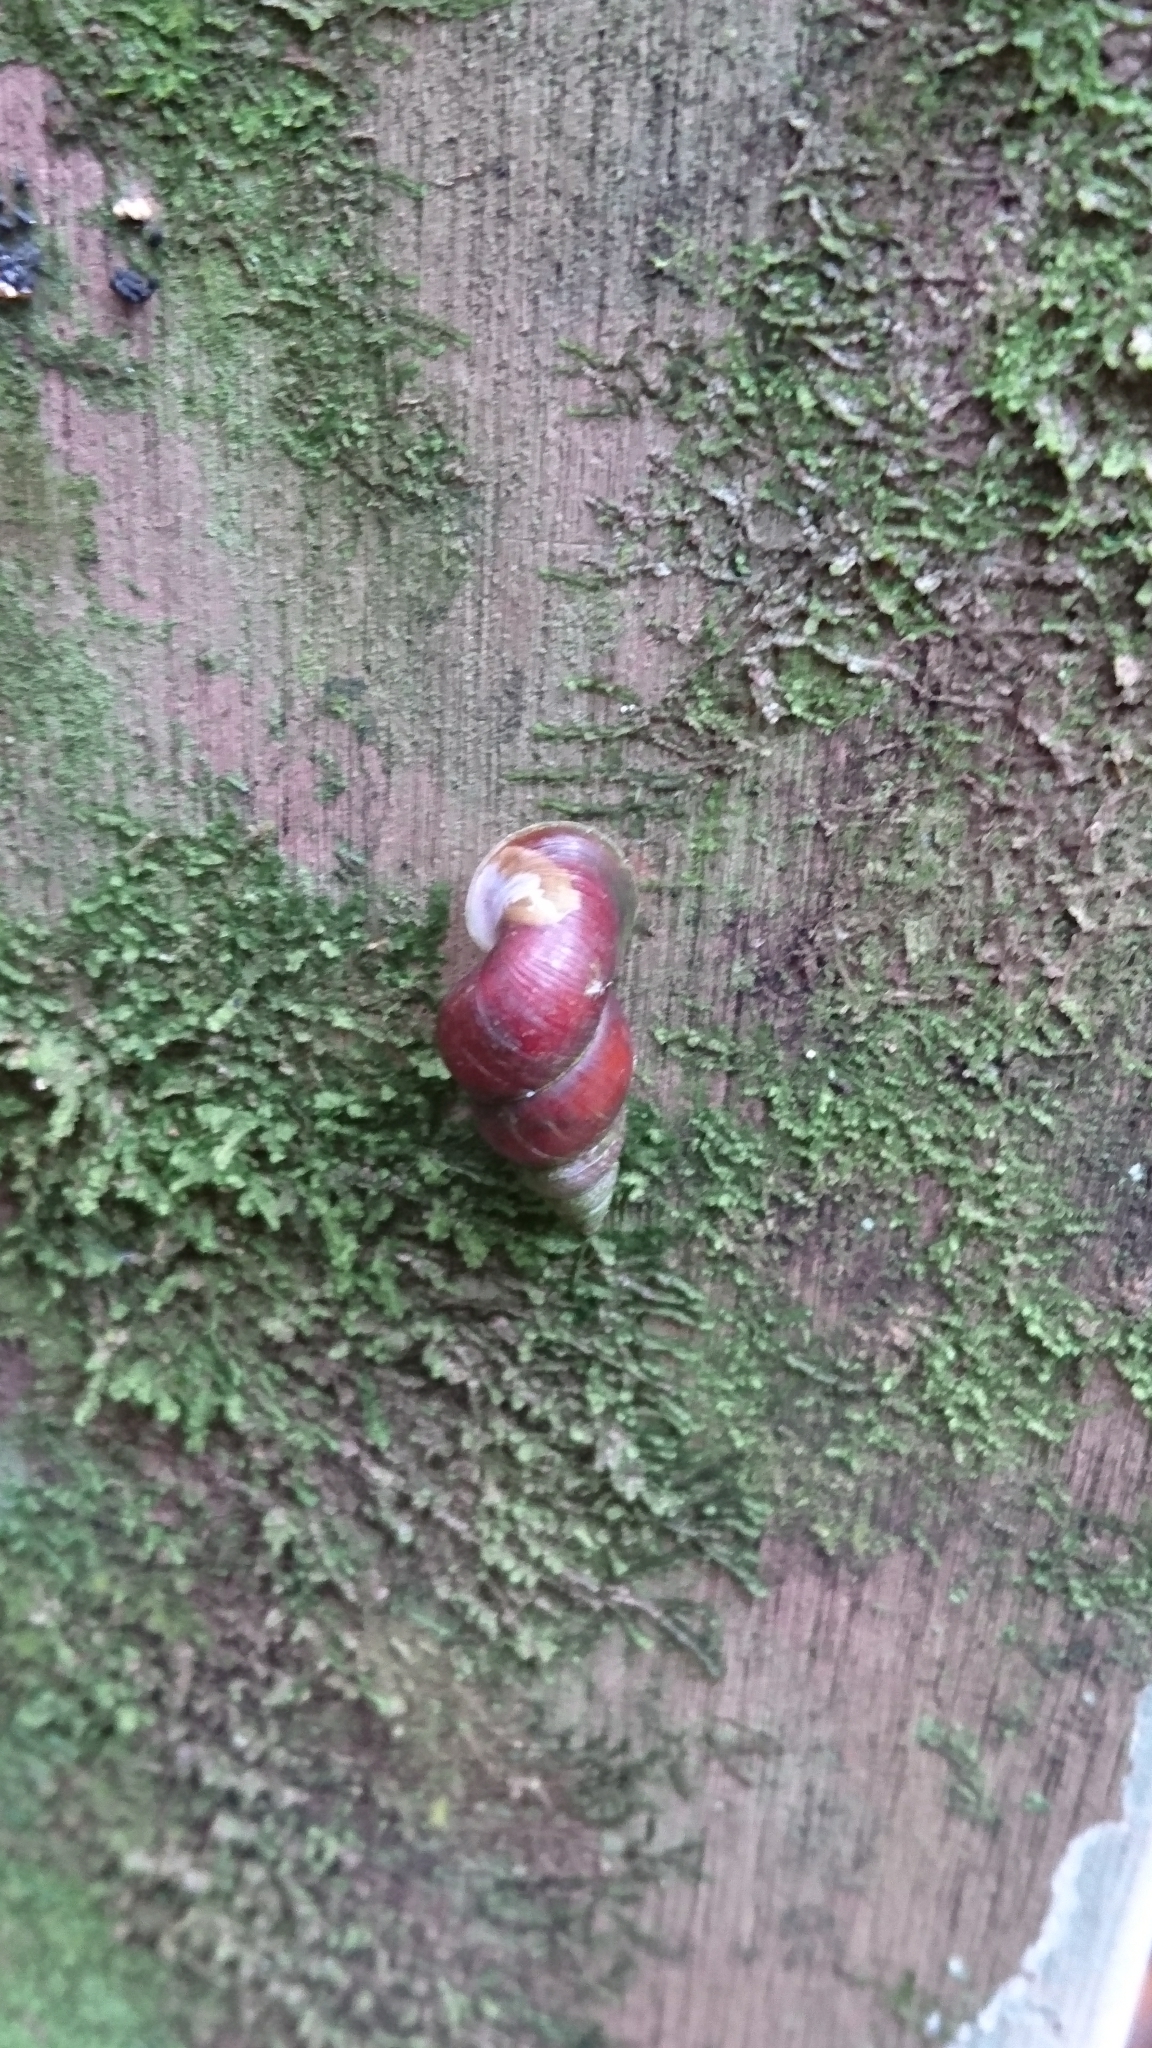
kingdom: Animalia
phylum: Mollusca
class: Gastropoda
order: Architaenioglossa
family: Pupinidae
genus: Coptocheilus
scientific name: Coptocheilus
